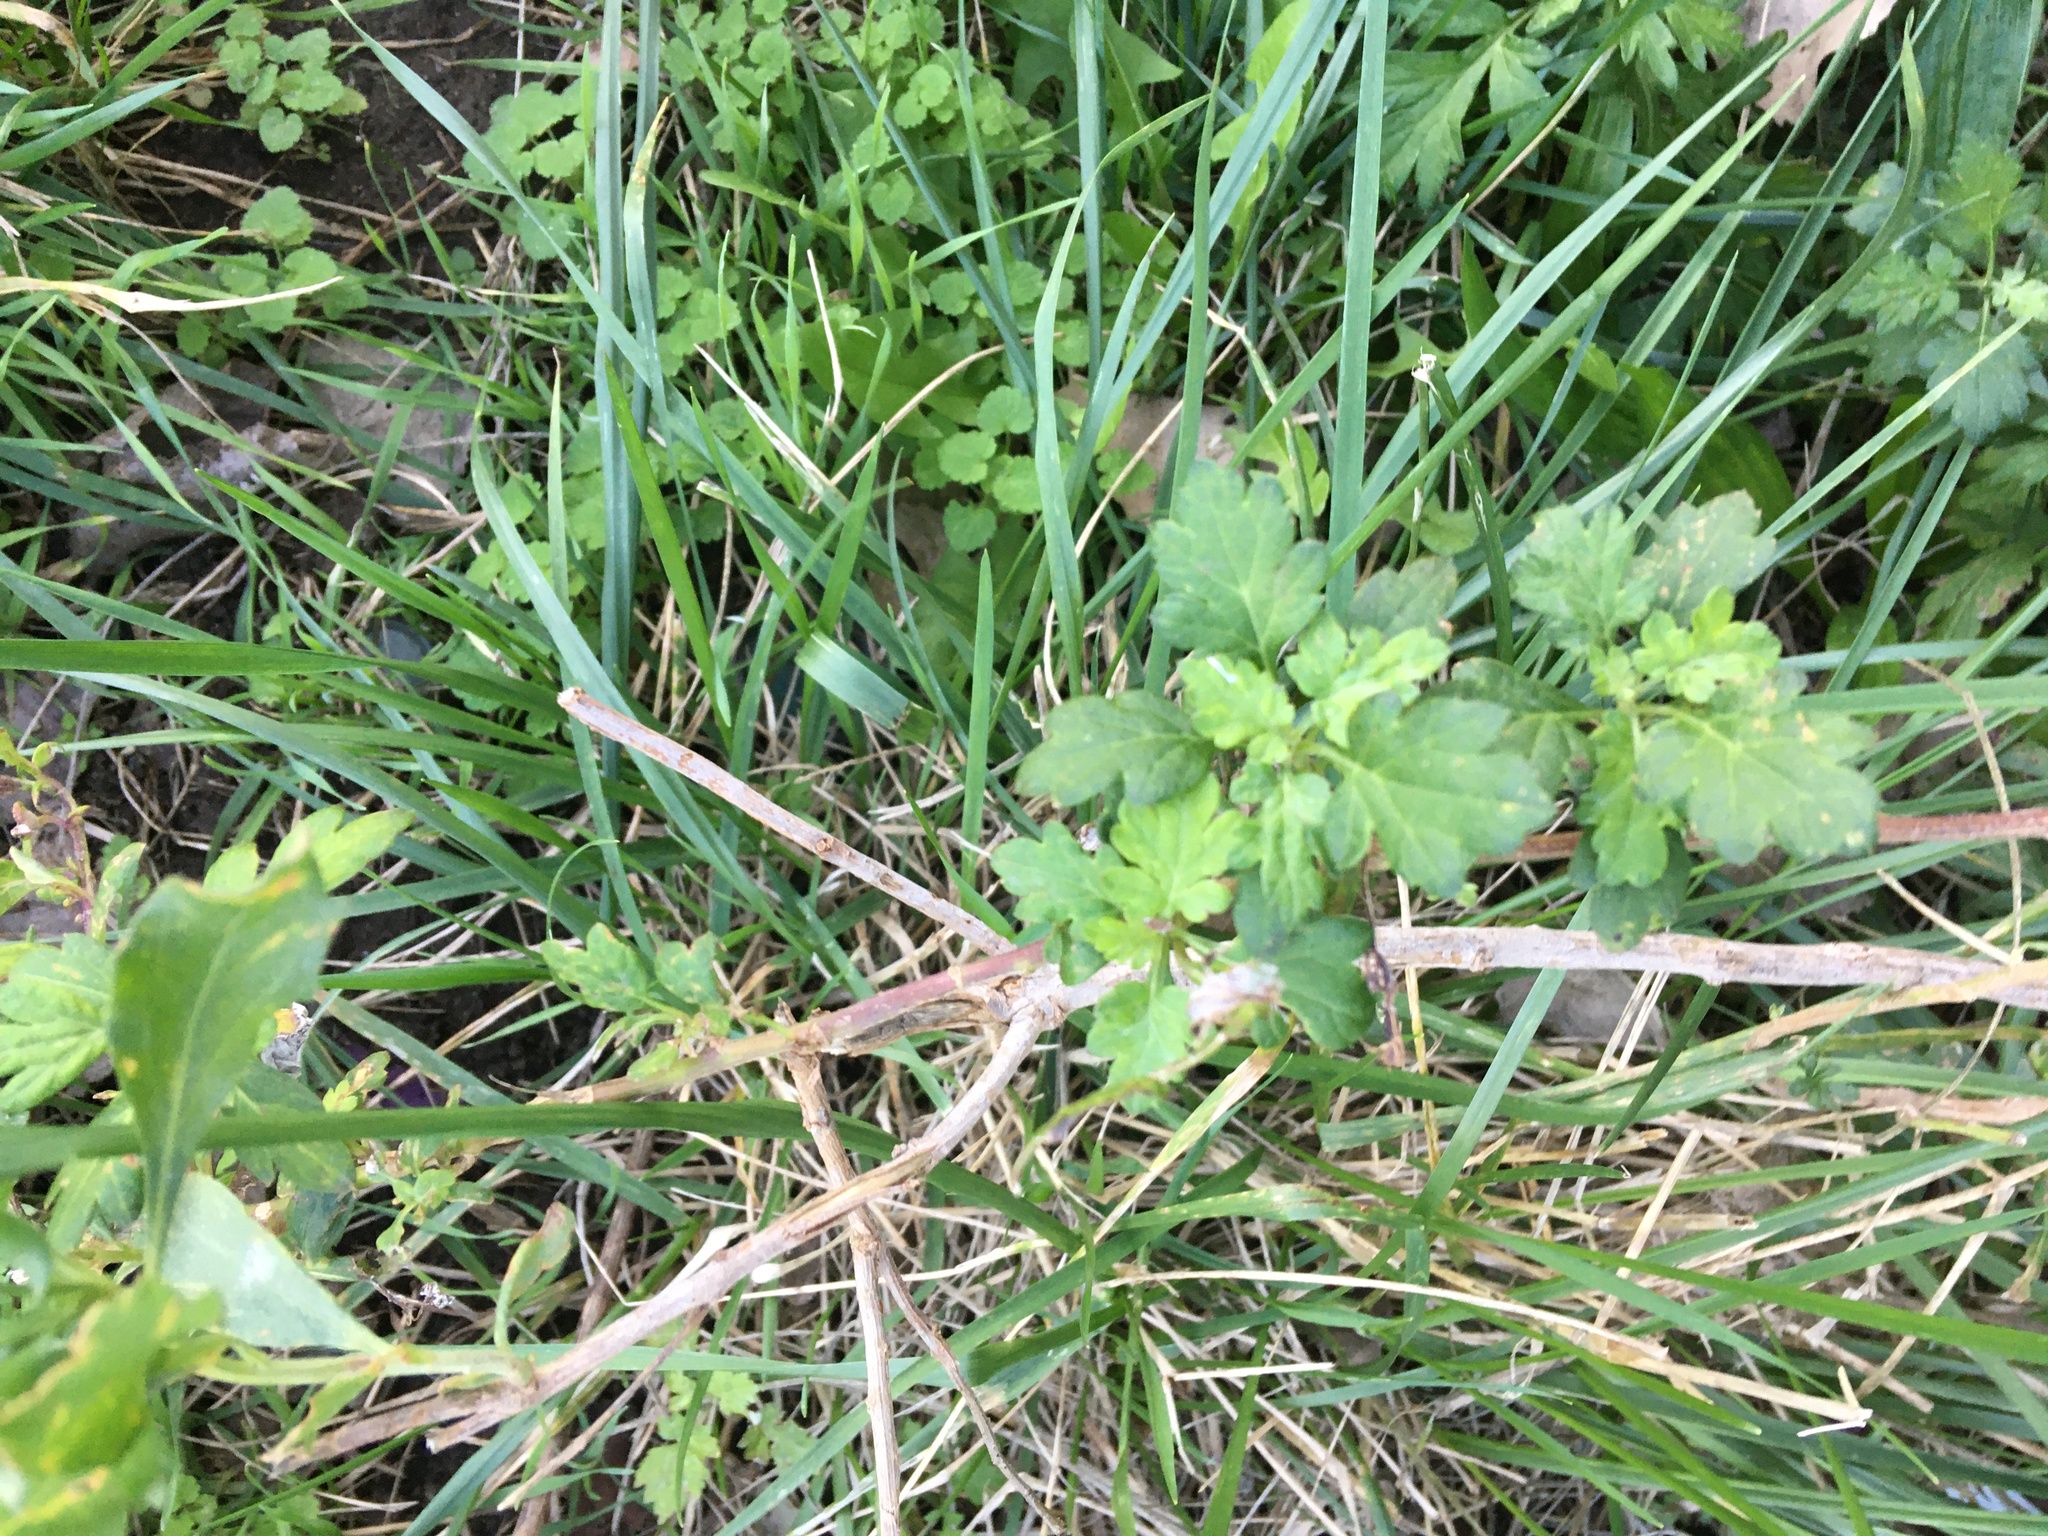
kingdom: Plantae
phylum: Tracheophyta
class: Magnoliopsida
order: Asterales
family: Asteraceae
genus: Artemisia
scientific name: Artemisia vulgaris
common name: Mugwort
